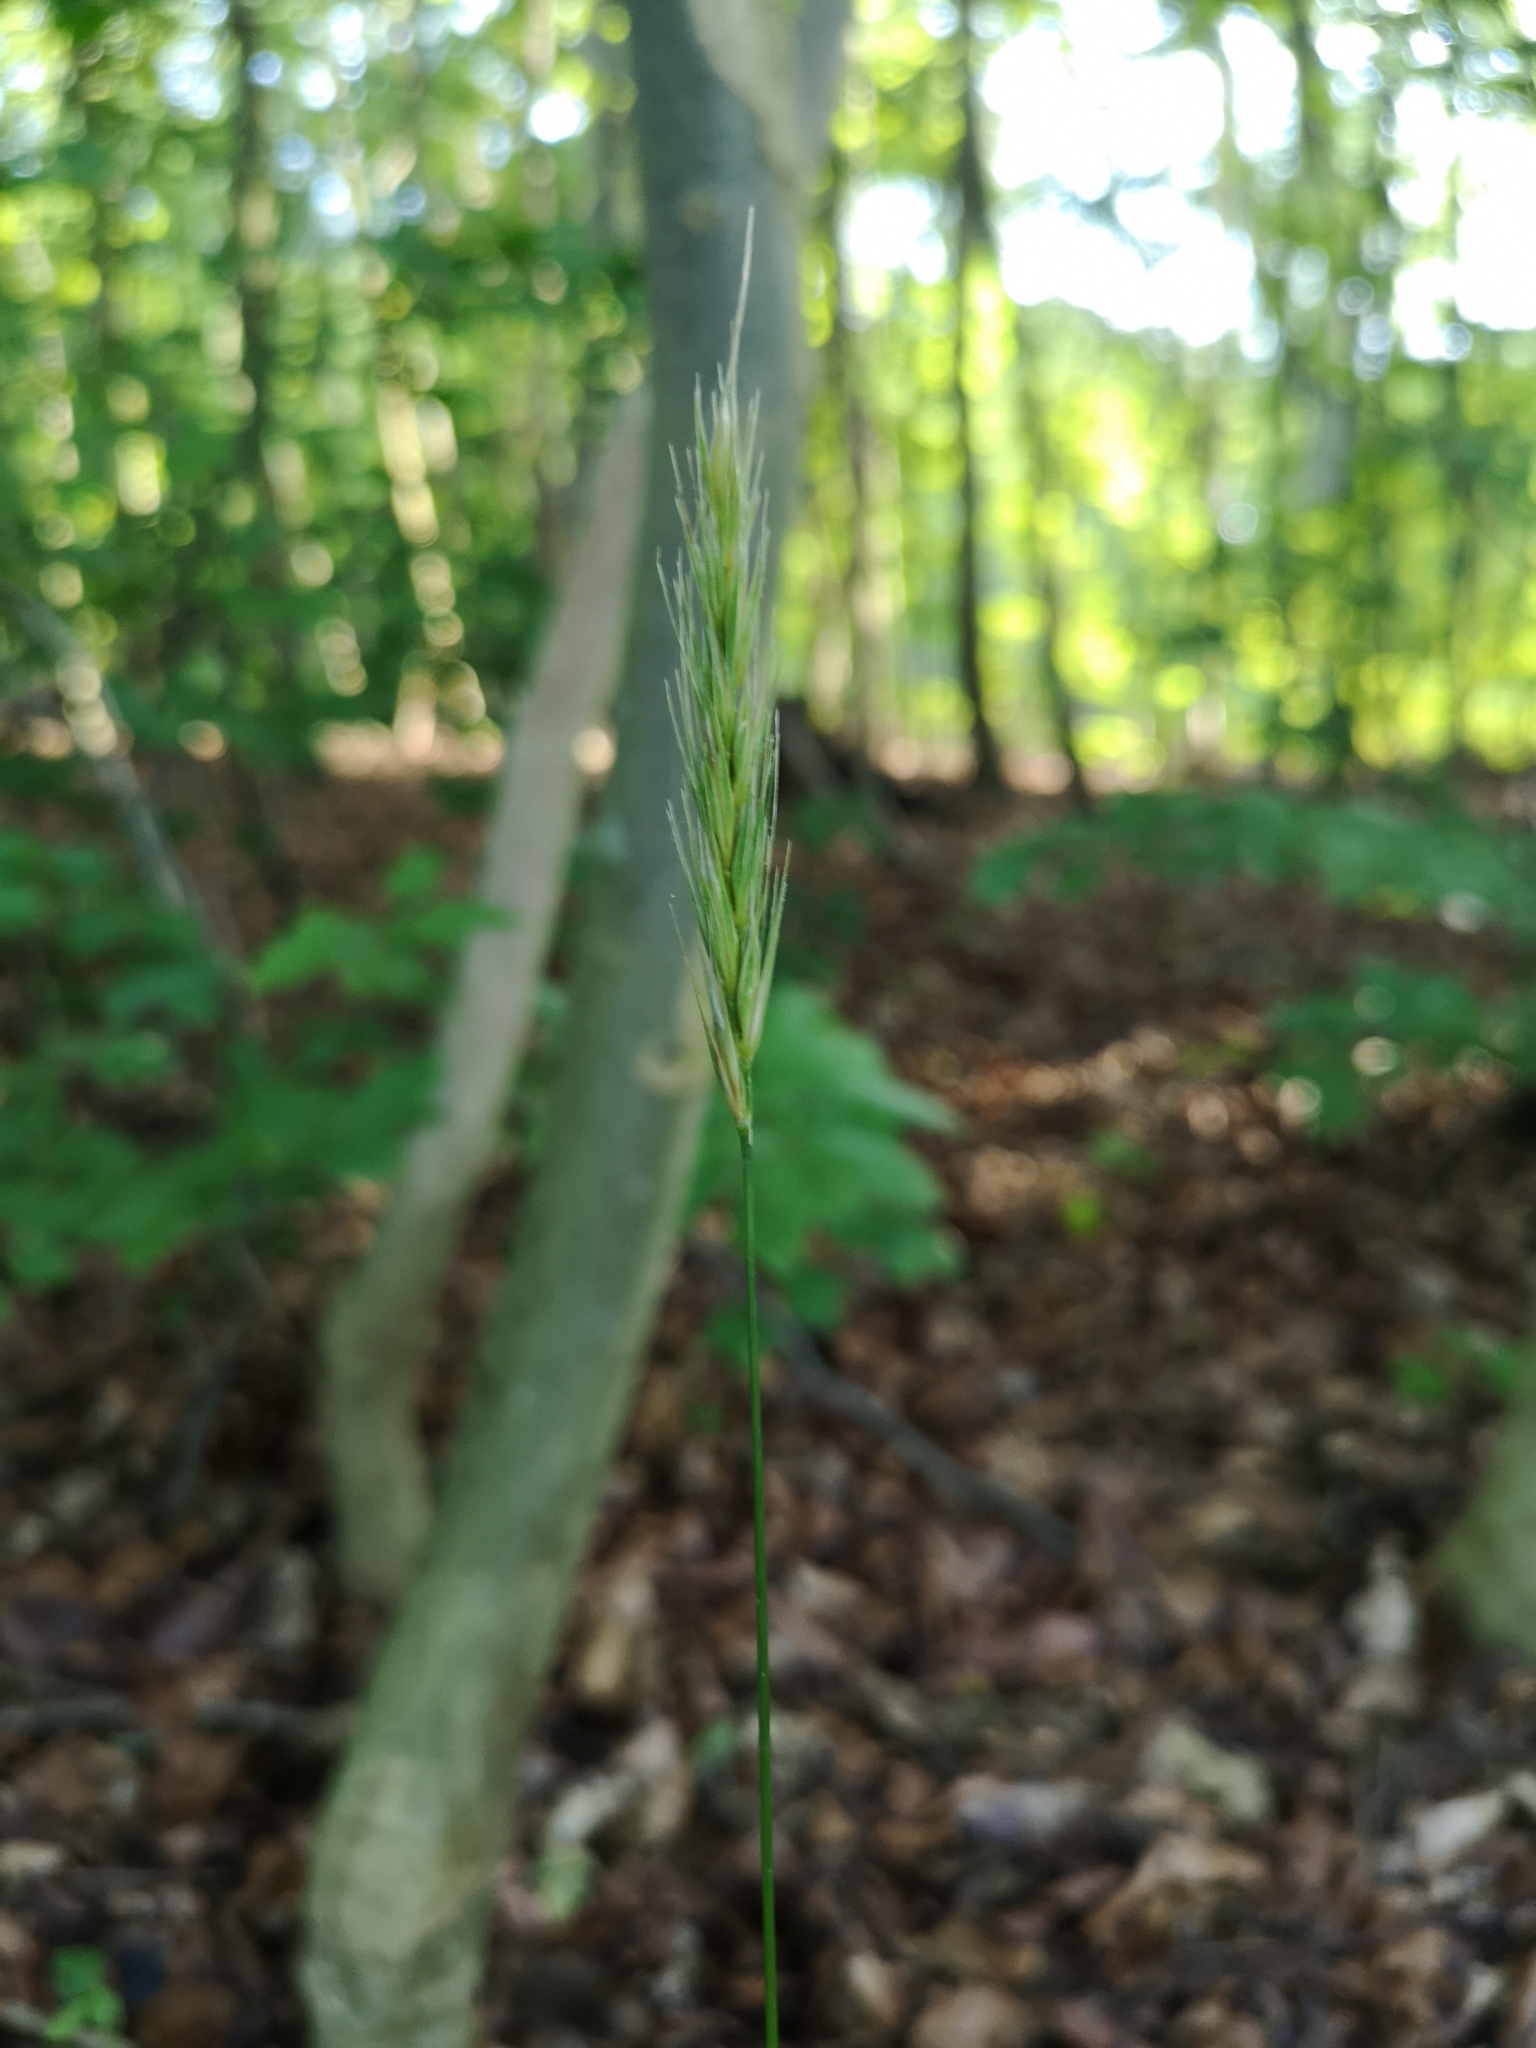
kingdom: Plantae
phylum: Tracheophyta
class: Liliopsida
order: Poales
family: Poaceae
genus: Hordelymus
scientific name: Hordelymus europaeus
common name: Wood-barley
